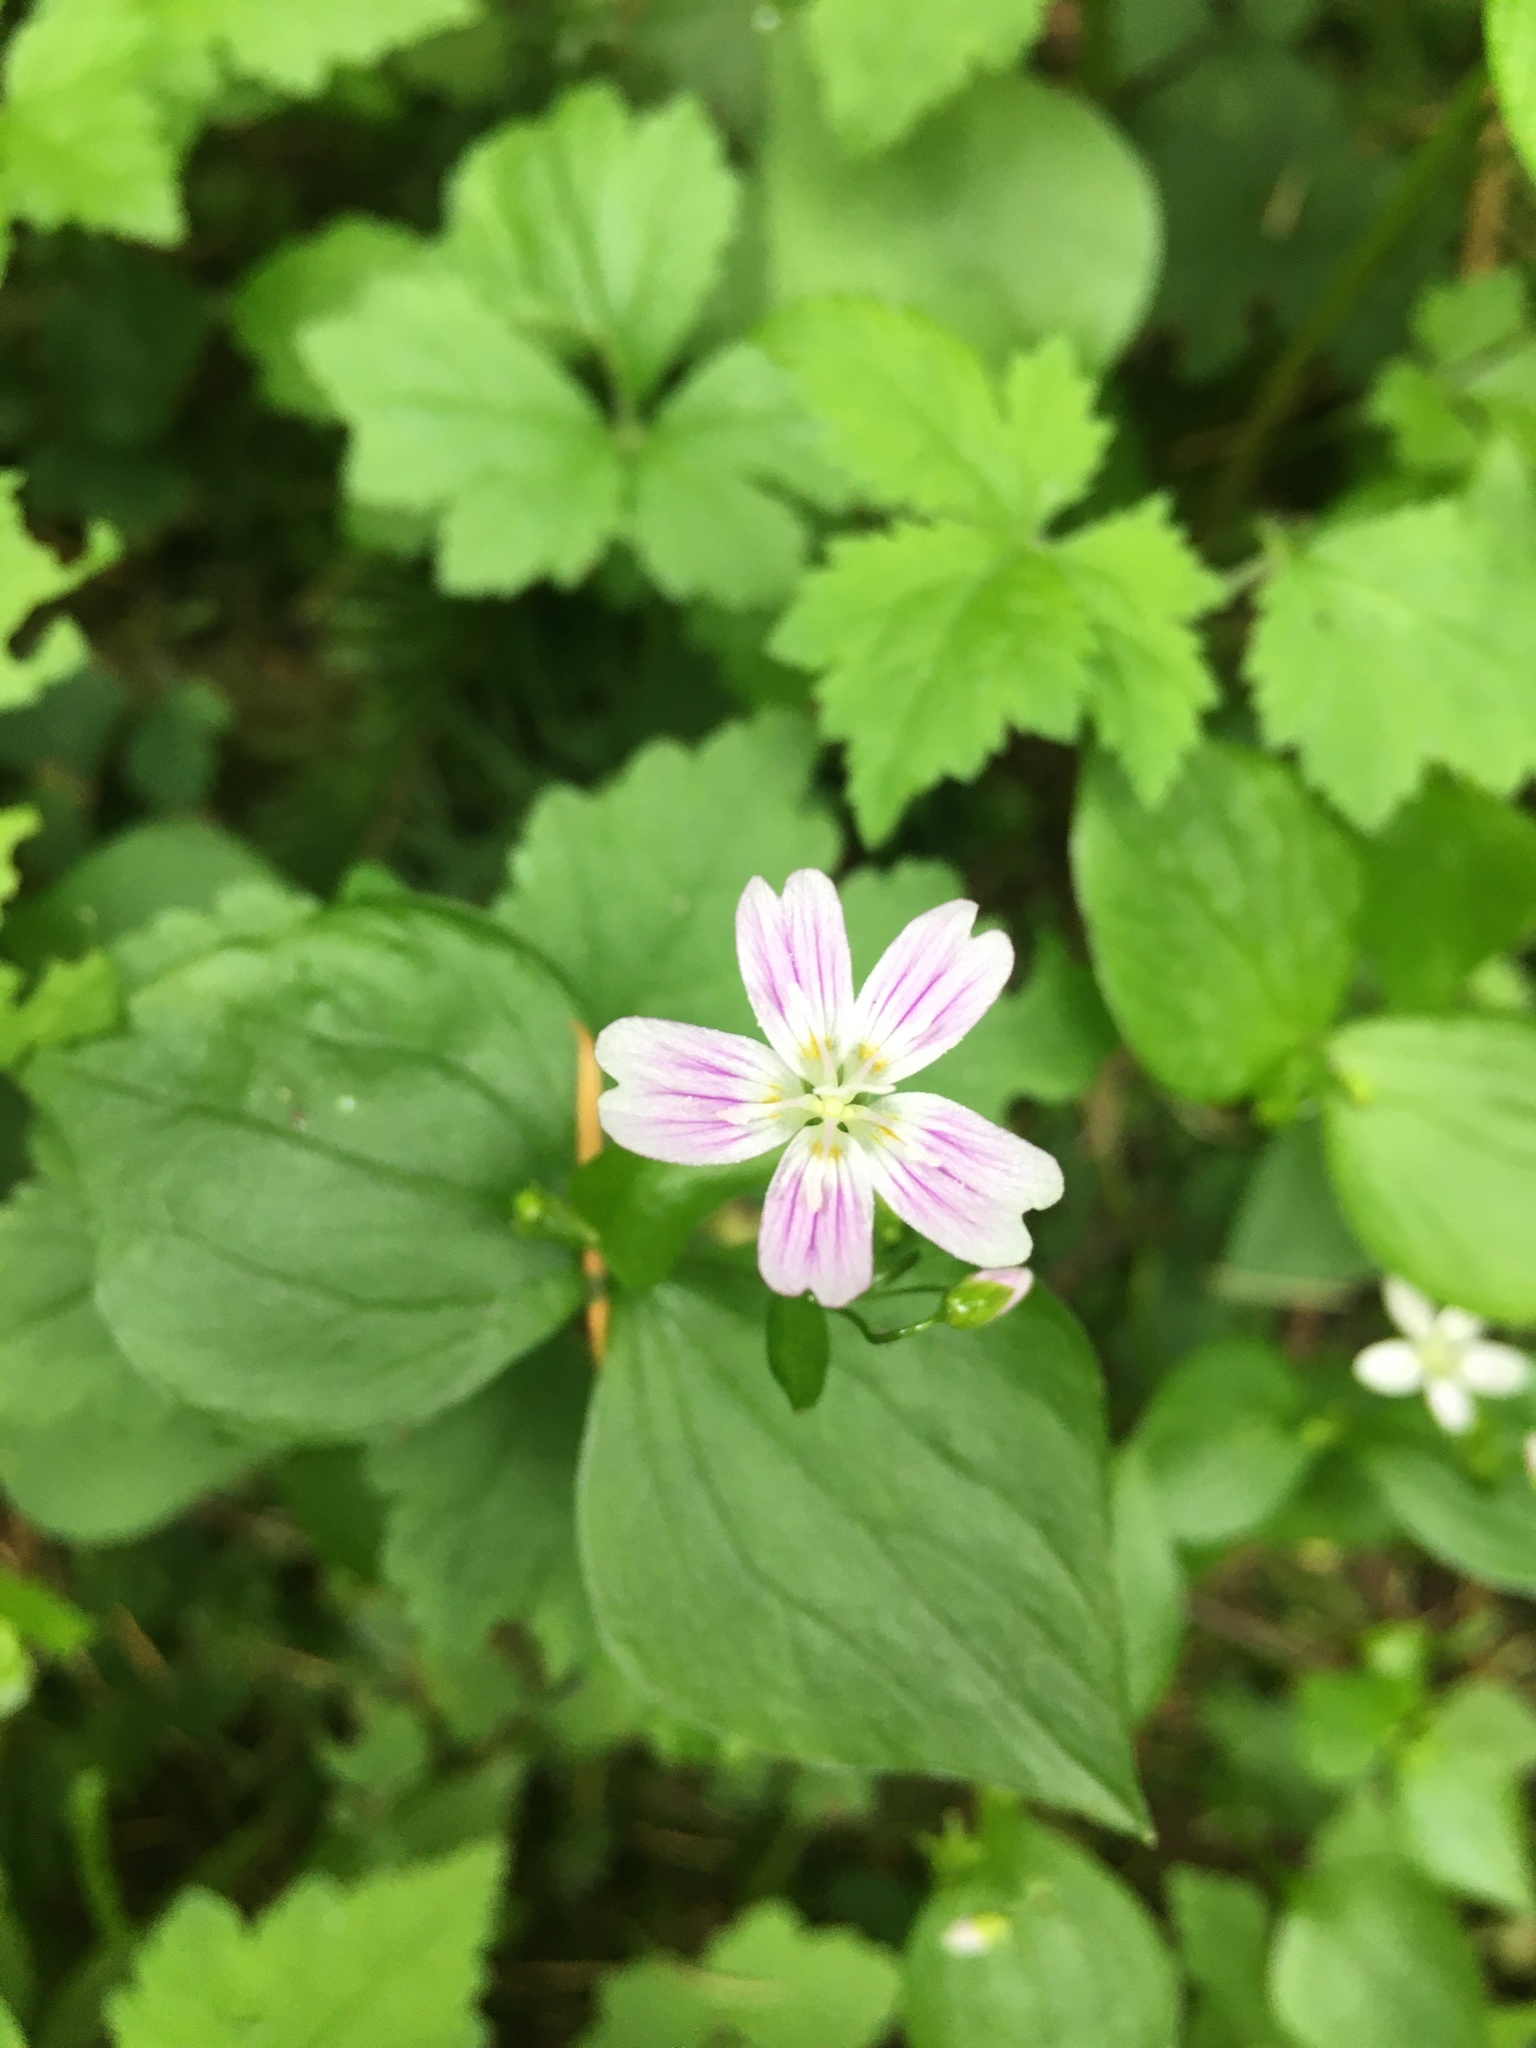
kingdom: Plantae
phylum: Tracheophyta
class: Magnoliopsida
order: Caryophyllales
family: Montiaceae
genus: Claytonia
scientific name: Claytonia sibirica
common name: Pink purslane
